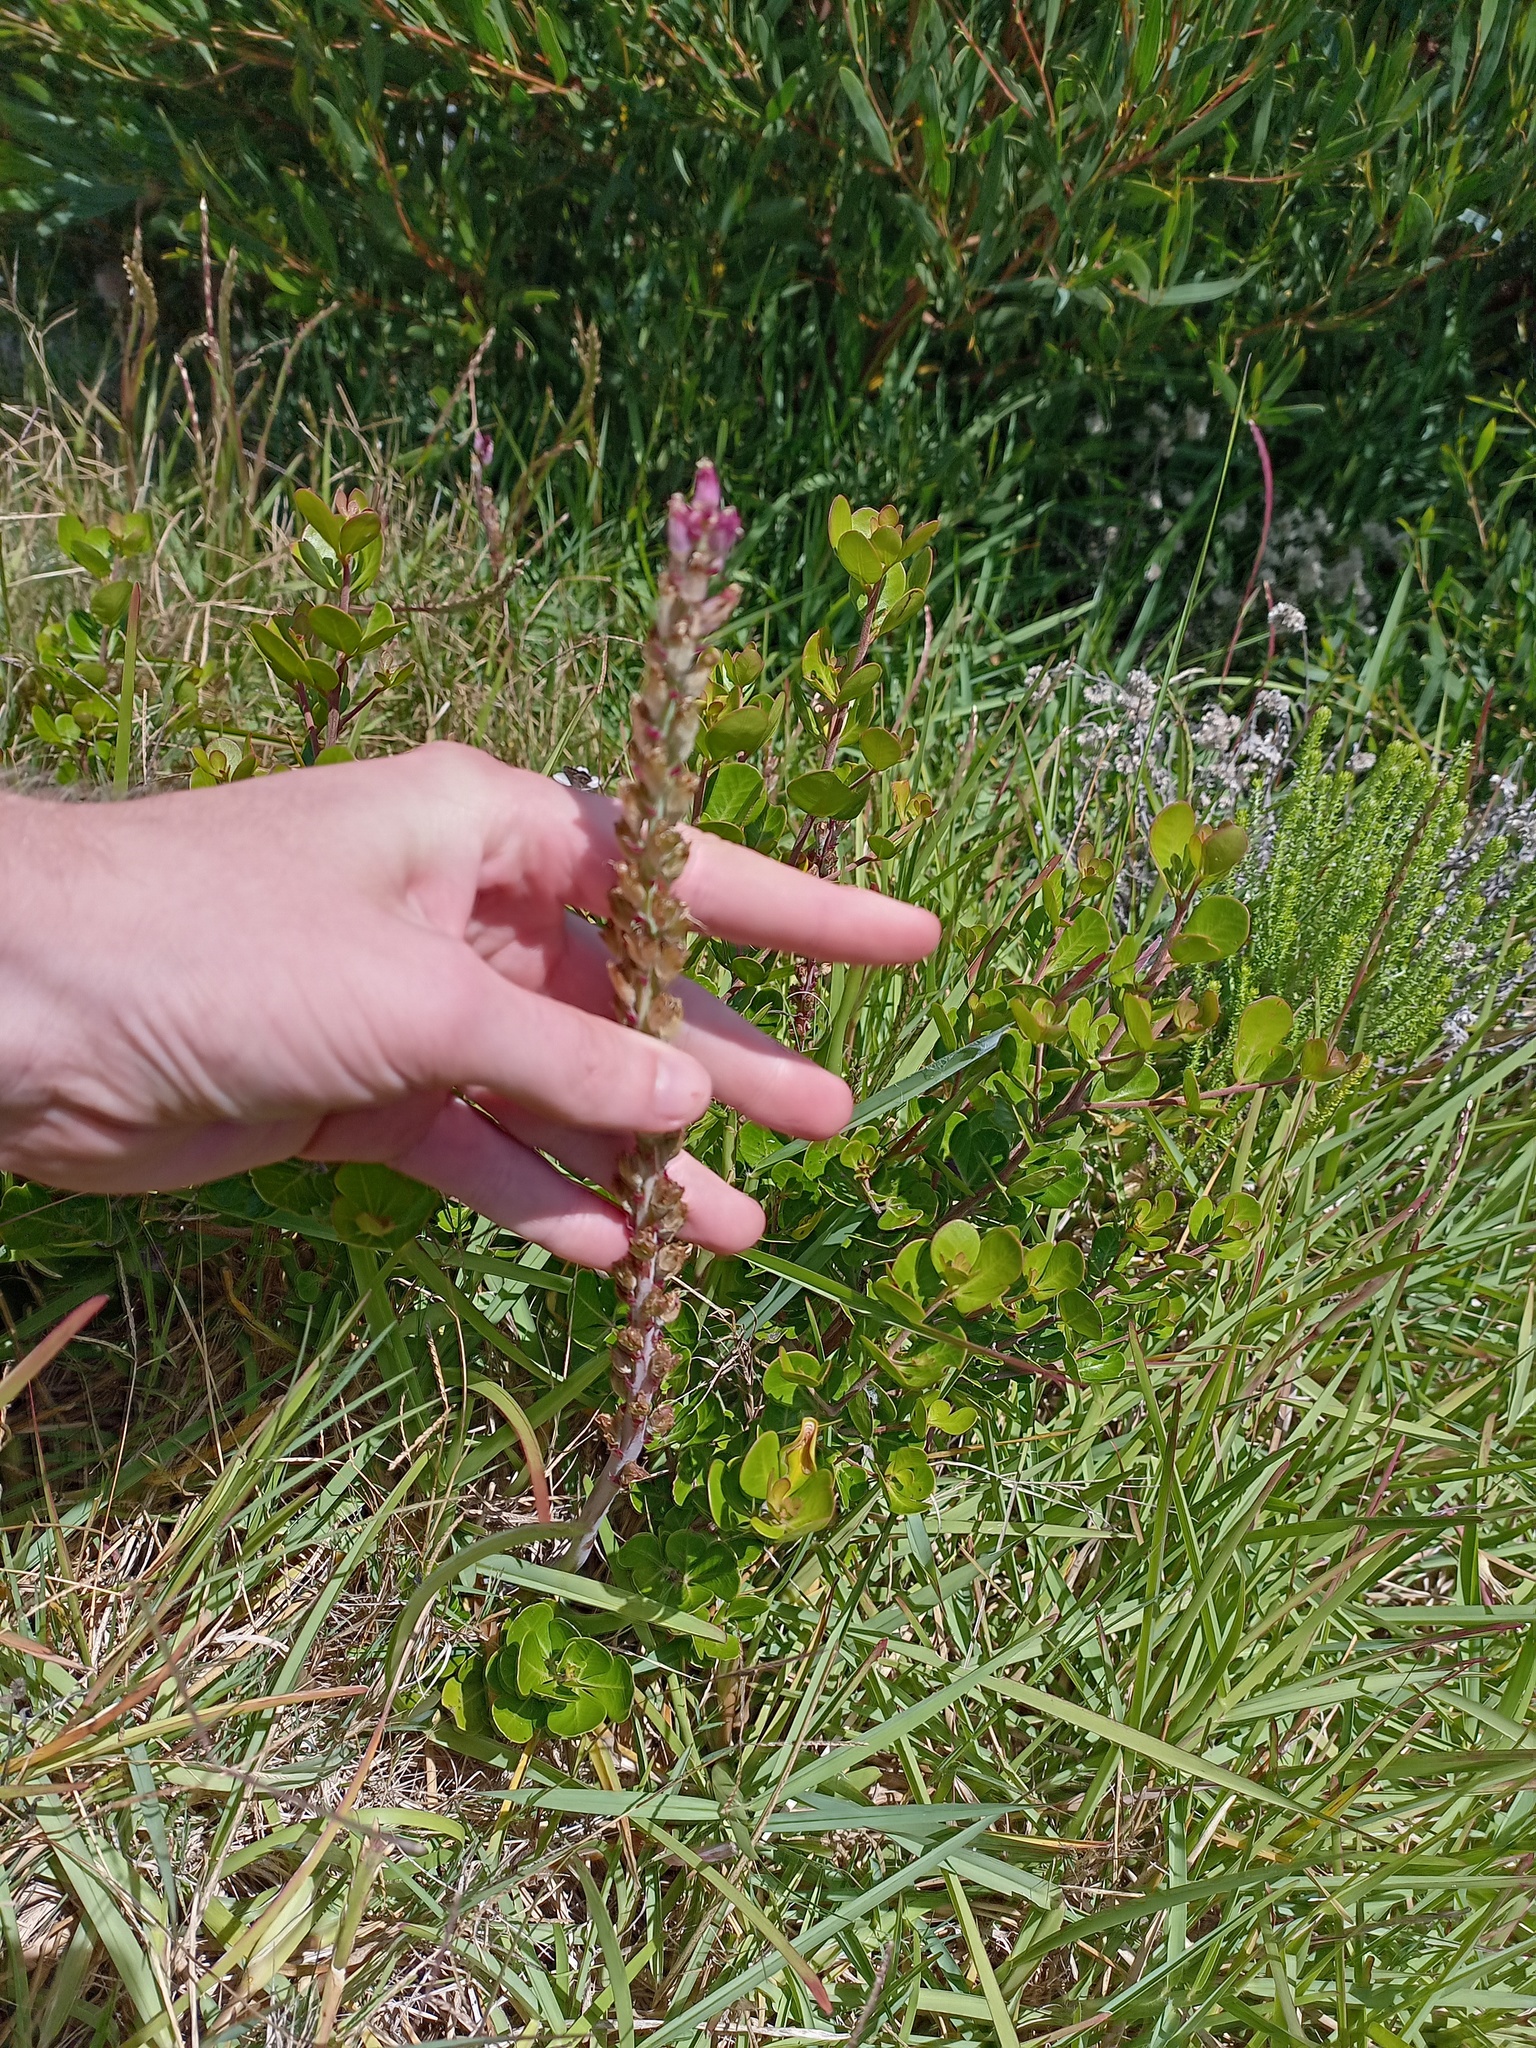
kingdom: Plantae
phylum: Tracheophyta
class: Liliopsida
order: Asparagales
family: Asparagaceae
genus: Lachenalia
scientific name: Lachenalia rosea
